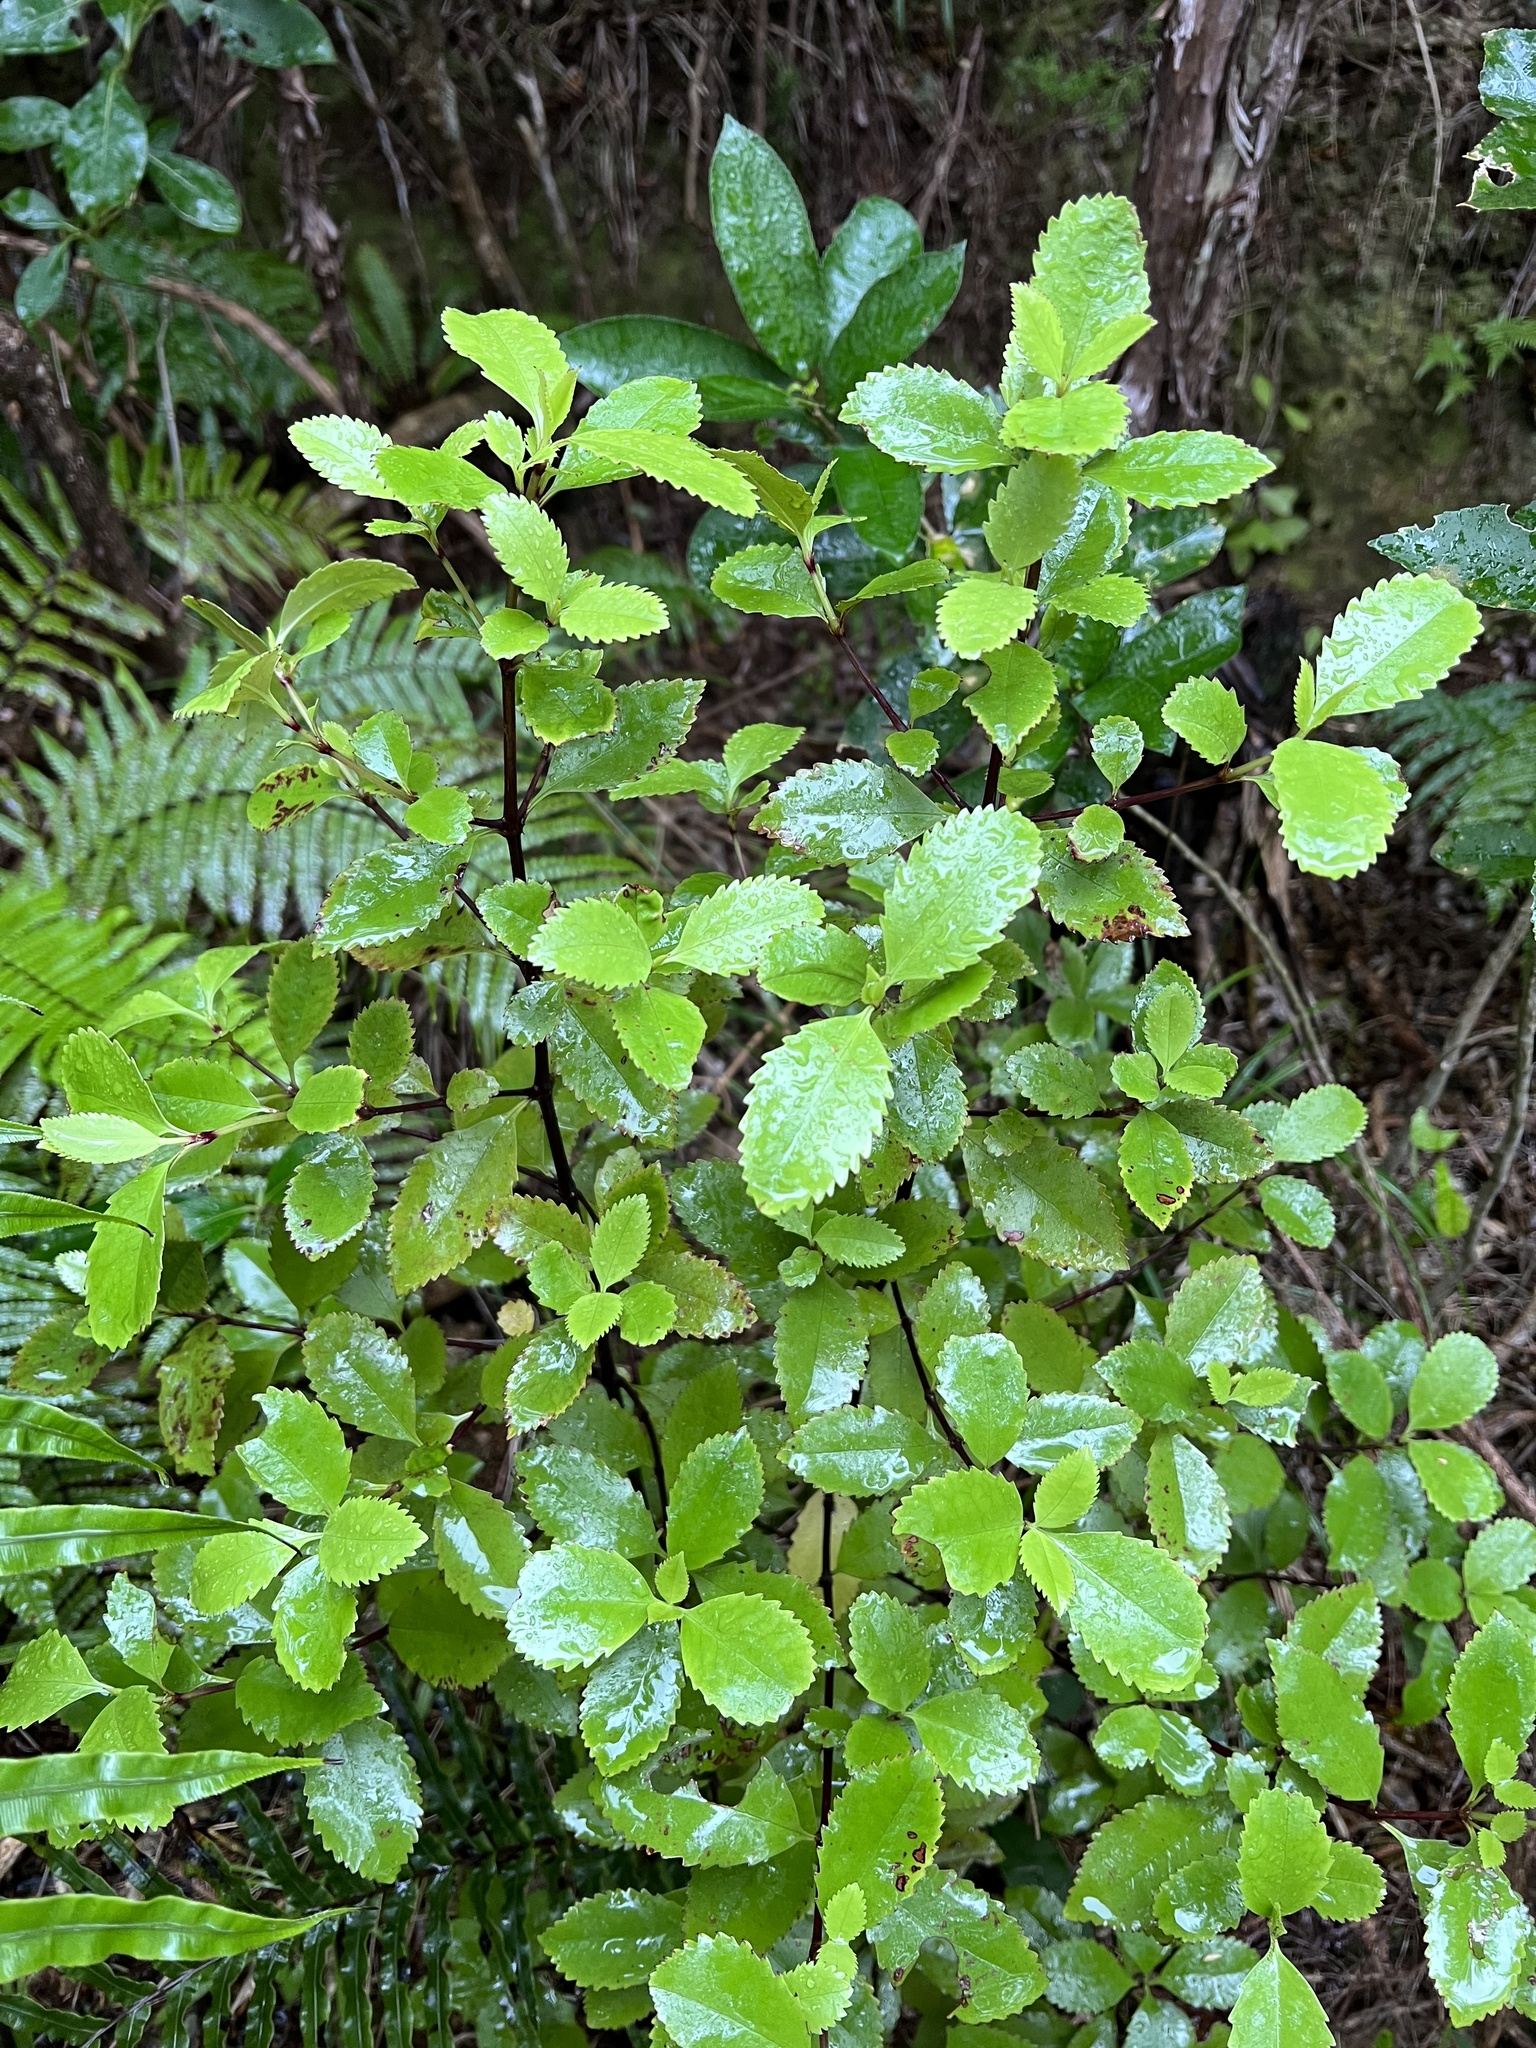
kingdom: Plantae
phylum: Tracheophyta
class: Magnoliopsida
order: Chloranthales
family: Chloranthaceae
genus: Ascarina
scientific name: Ascarina lucida
